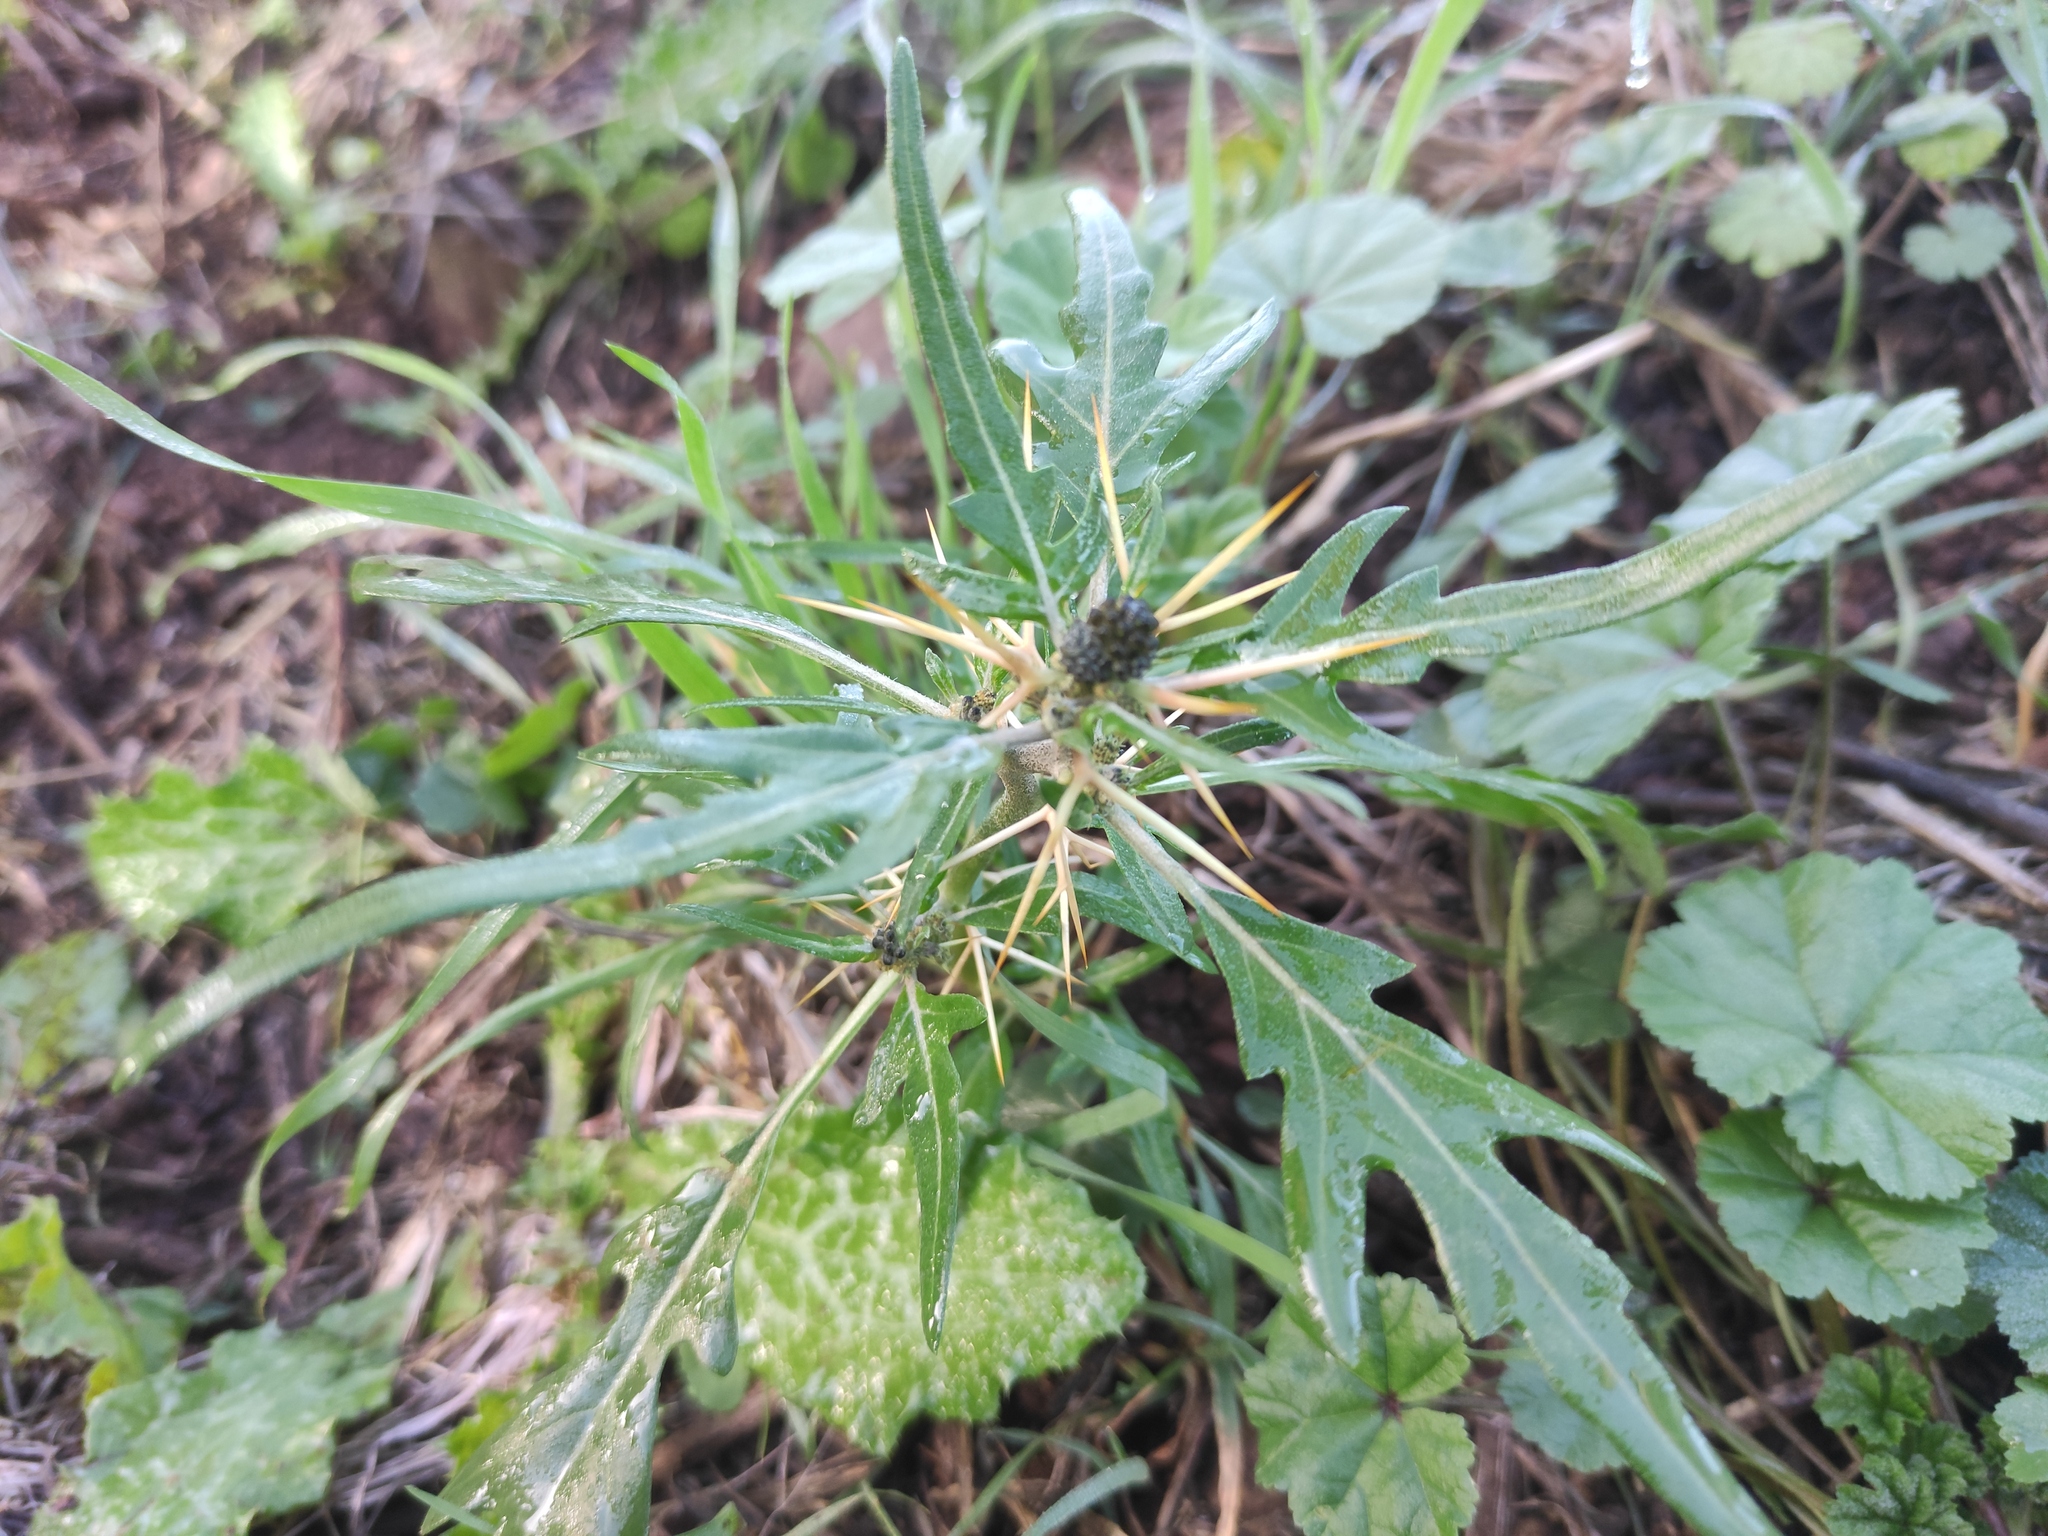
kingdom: Plantae
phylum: Tracheophyta
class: Magnoliopsida
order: Asterales
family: Asteraceae
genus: Xanthium
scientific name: Xanthium spinosum
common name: Spiny cocklebur
